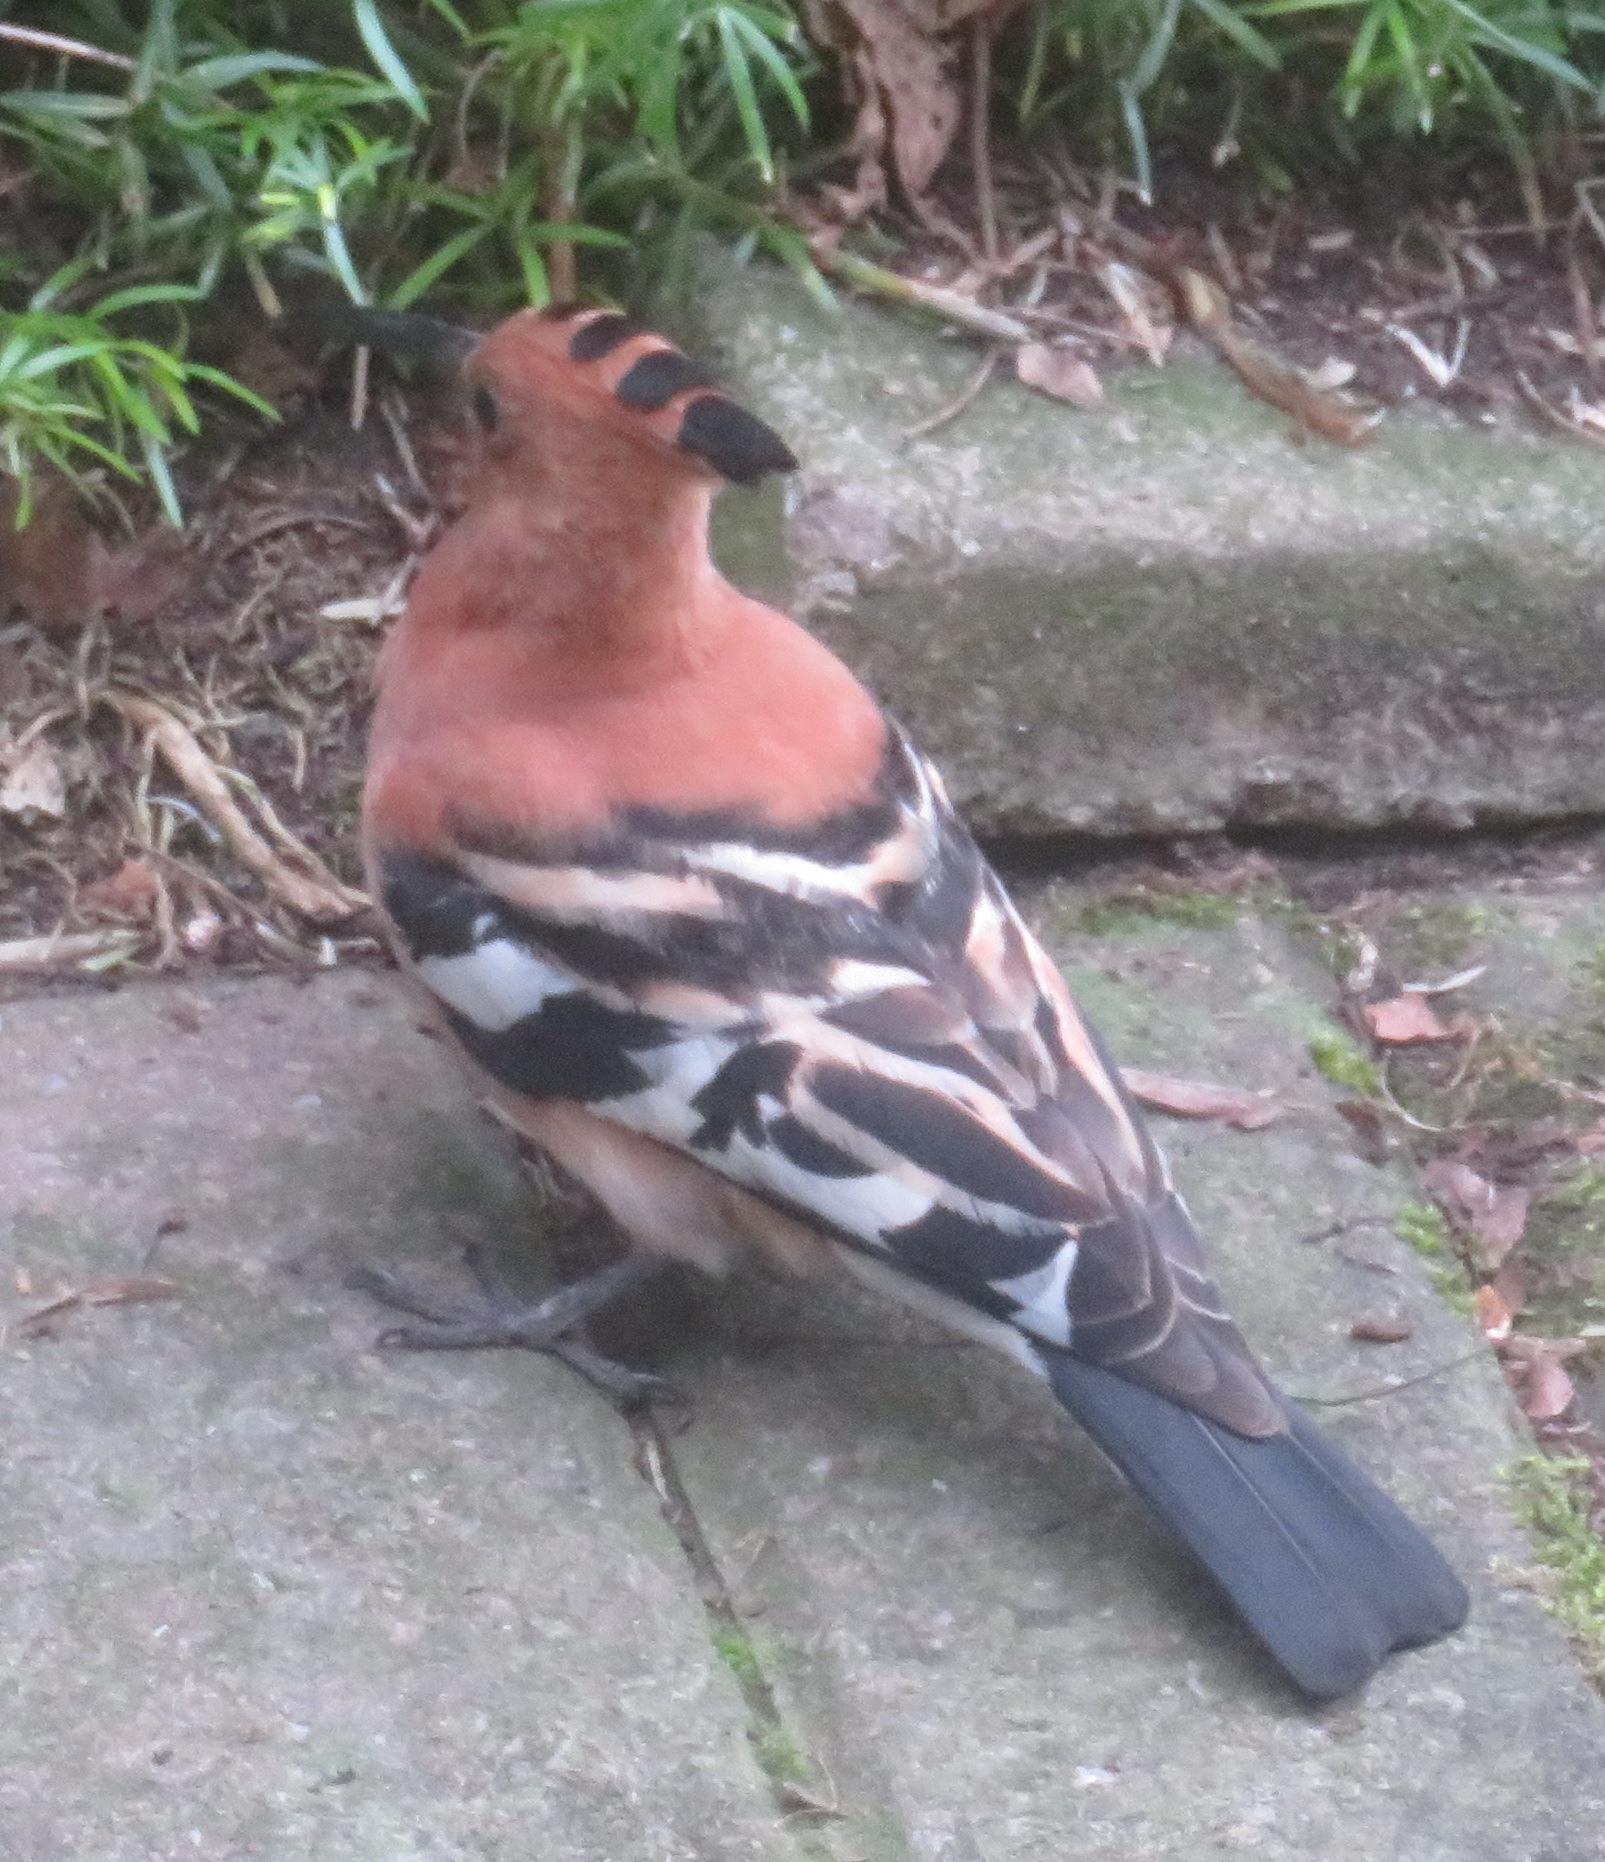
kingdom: Animalia
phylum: Chordata
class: Aves
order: Bucerotiformes
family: Upupidae
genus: Upupa
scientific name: Upupa africana
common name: African hoopoe
